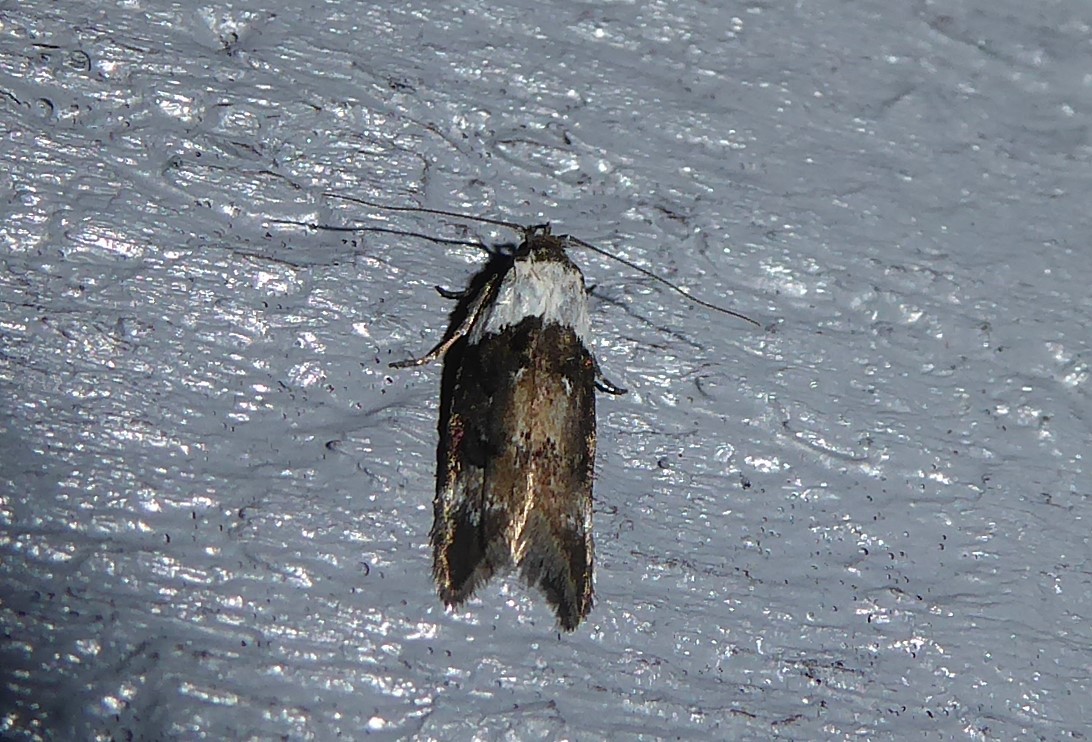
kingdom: Animalia
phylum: Arthropoda
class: Insecta
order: Lepidoptera
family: Oecophoridae
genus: Trachypepla
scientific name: Trachypepla euryleucota
